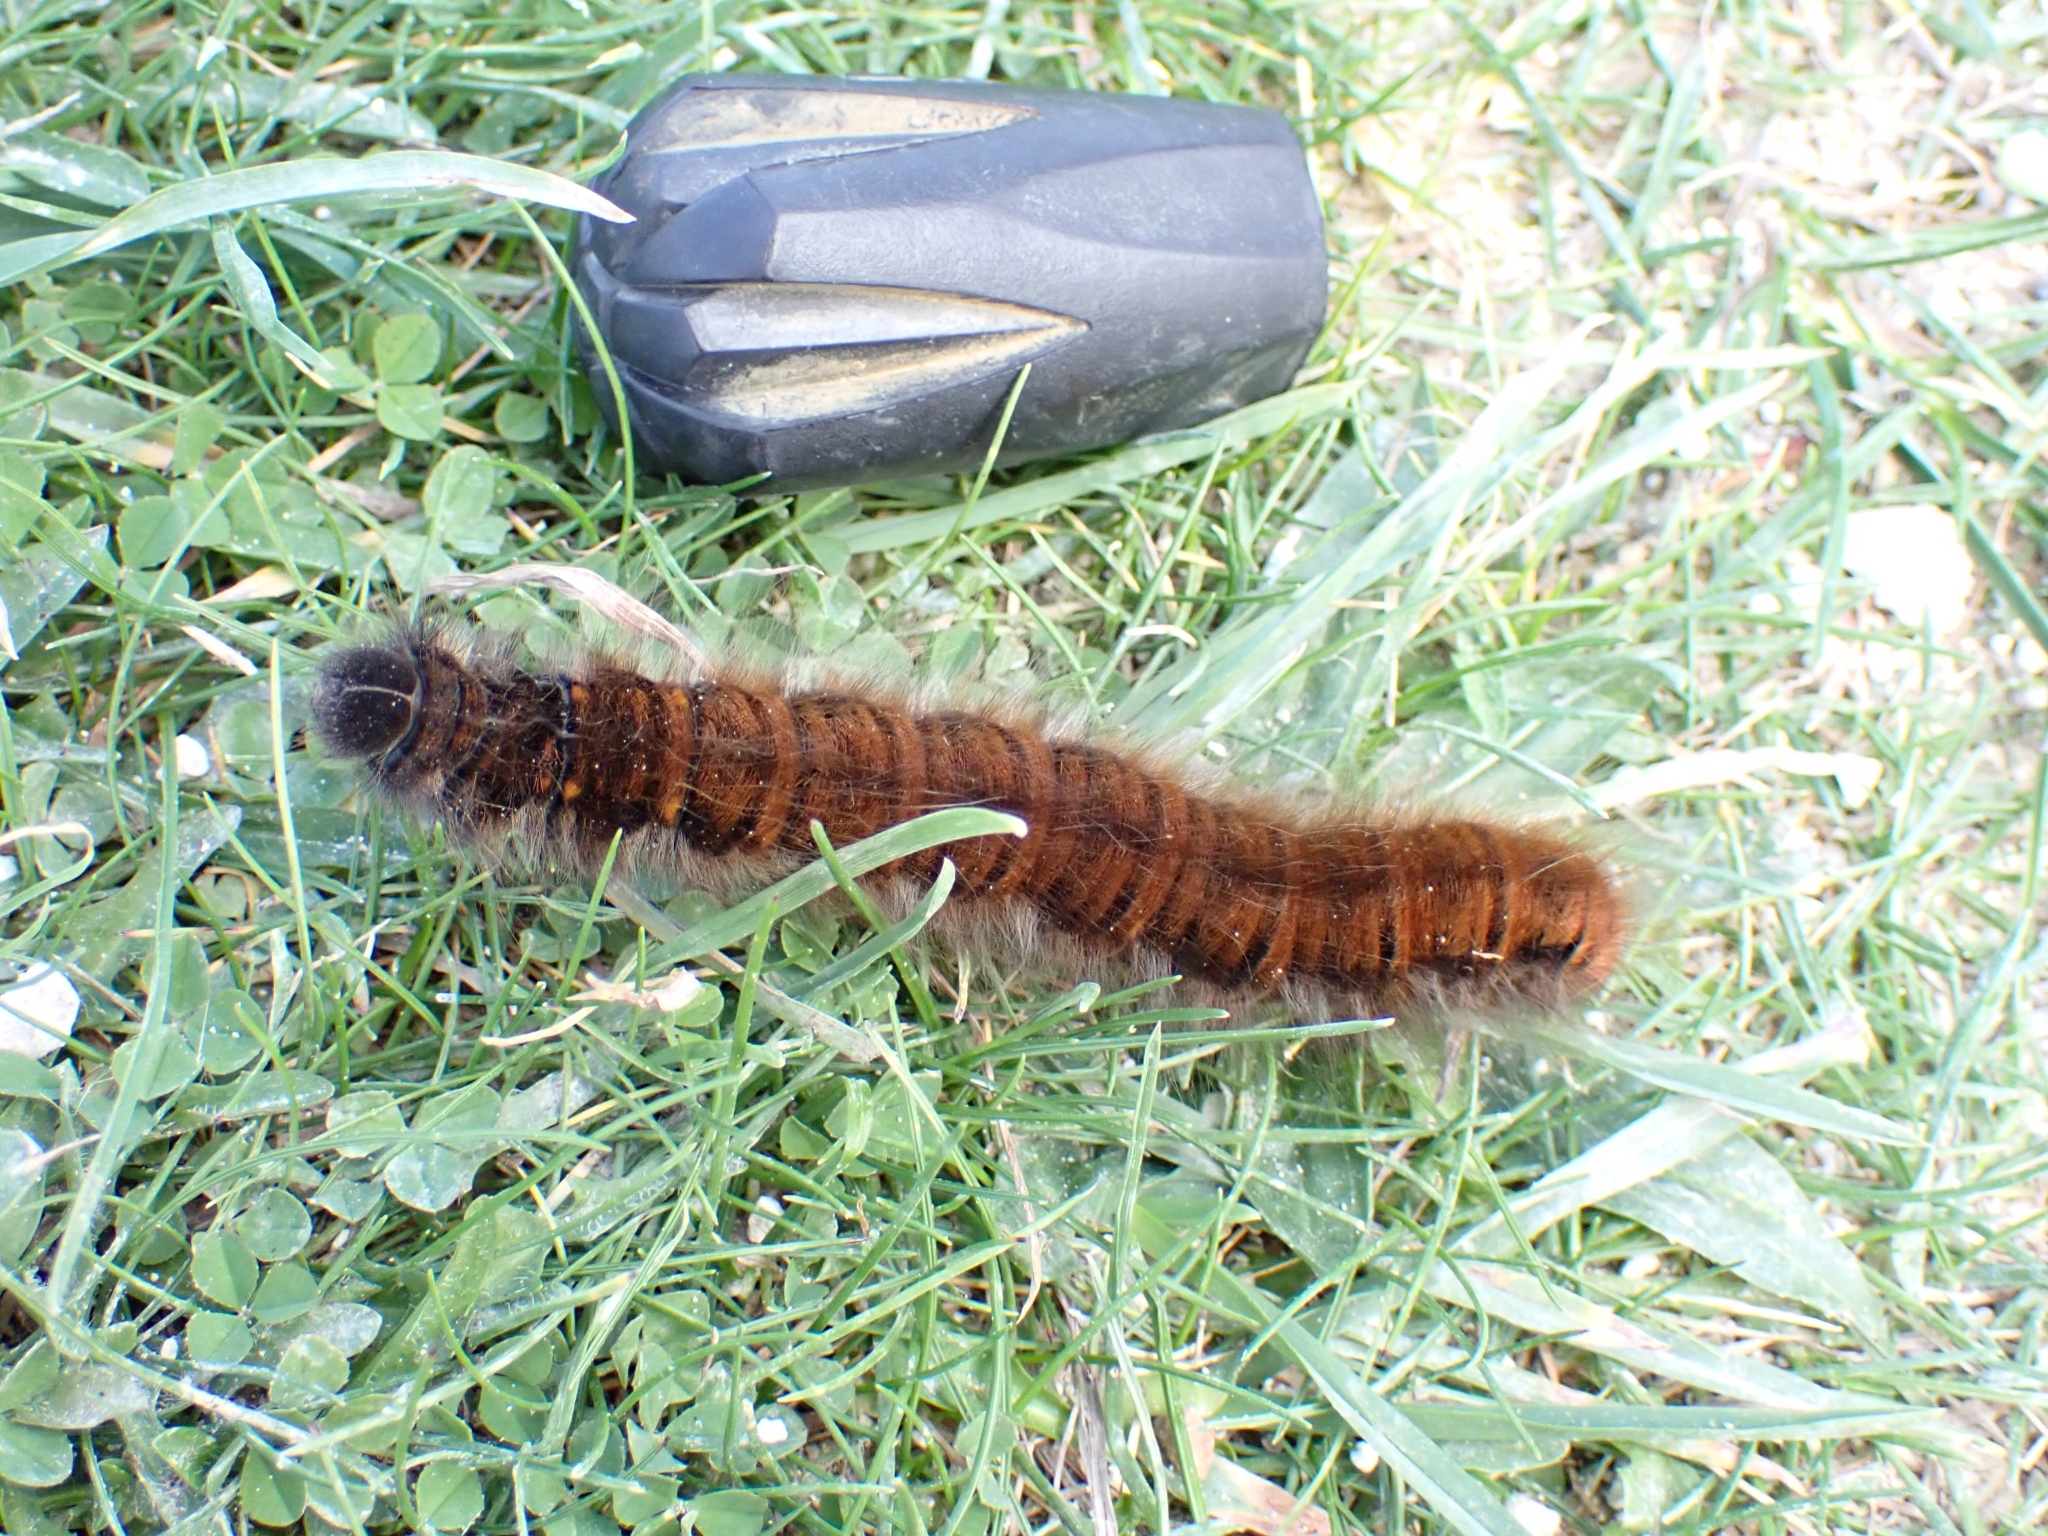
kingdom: Animalia
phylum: Arthropoda
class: Insecta
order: Lepidoptera
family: Lasiocampidae
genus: Macrothylacia
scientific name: Macrothylacia rubi
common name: Fox moth
